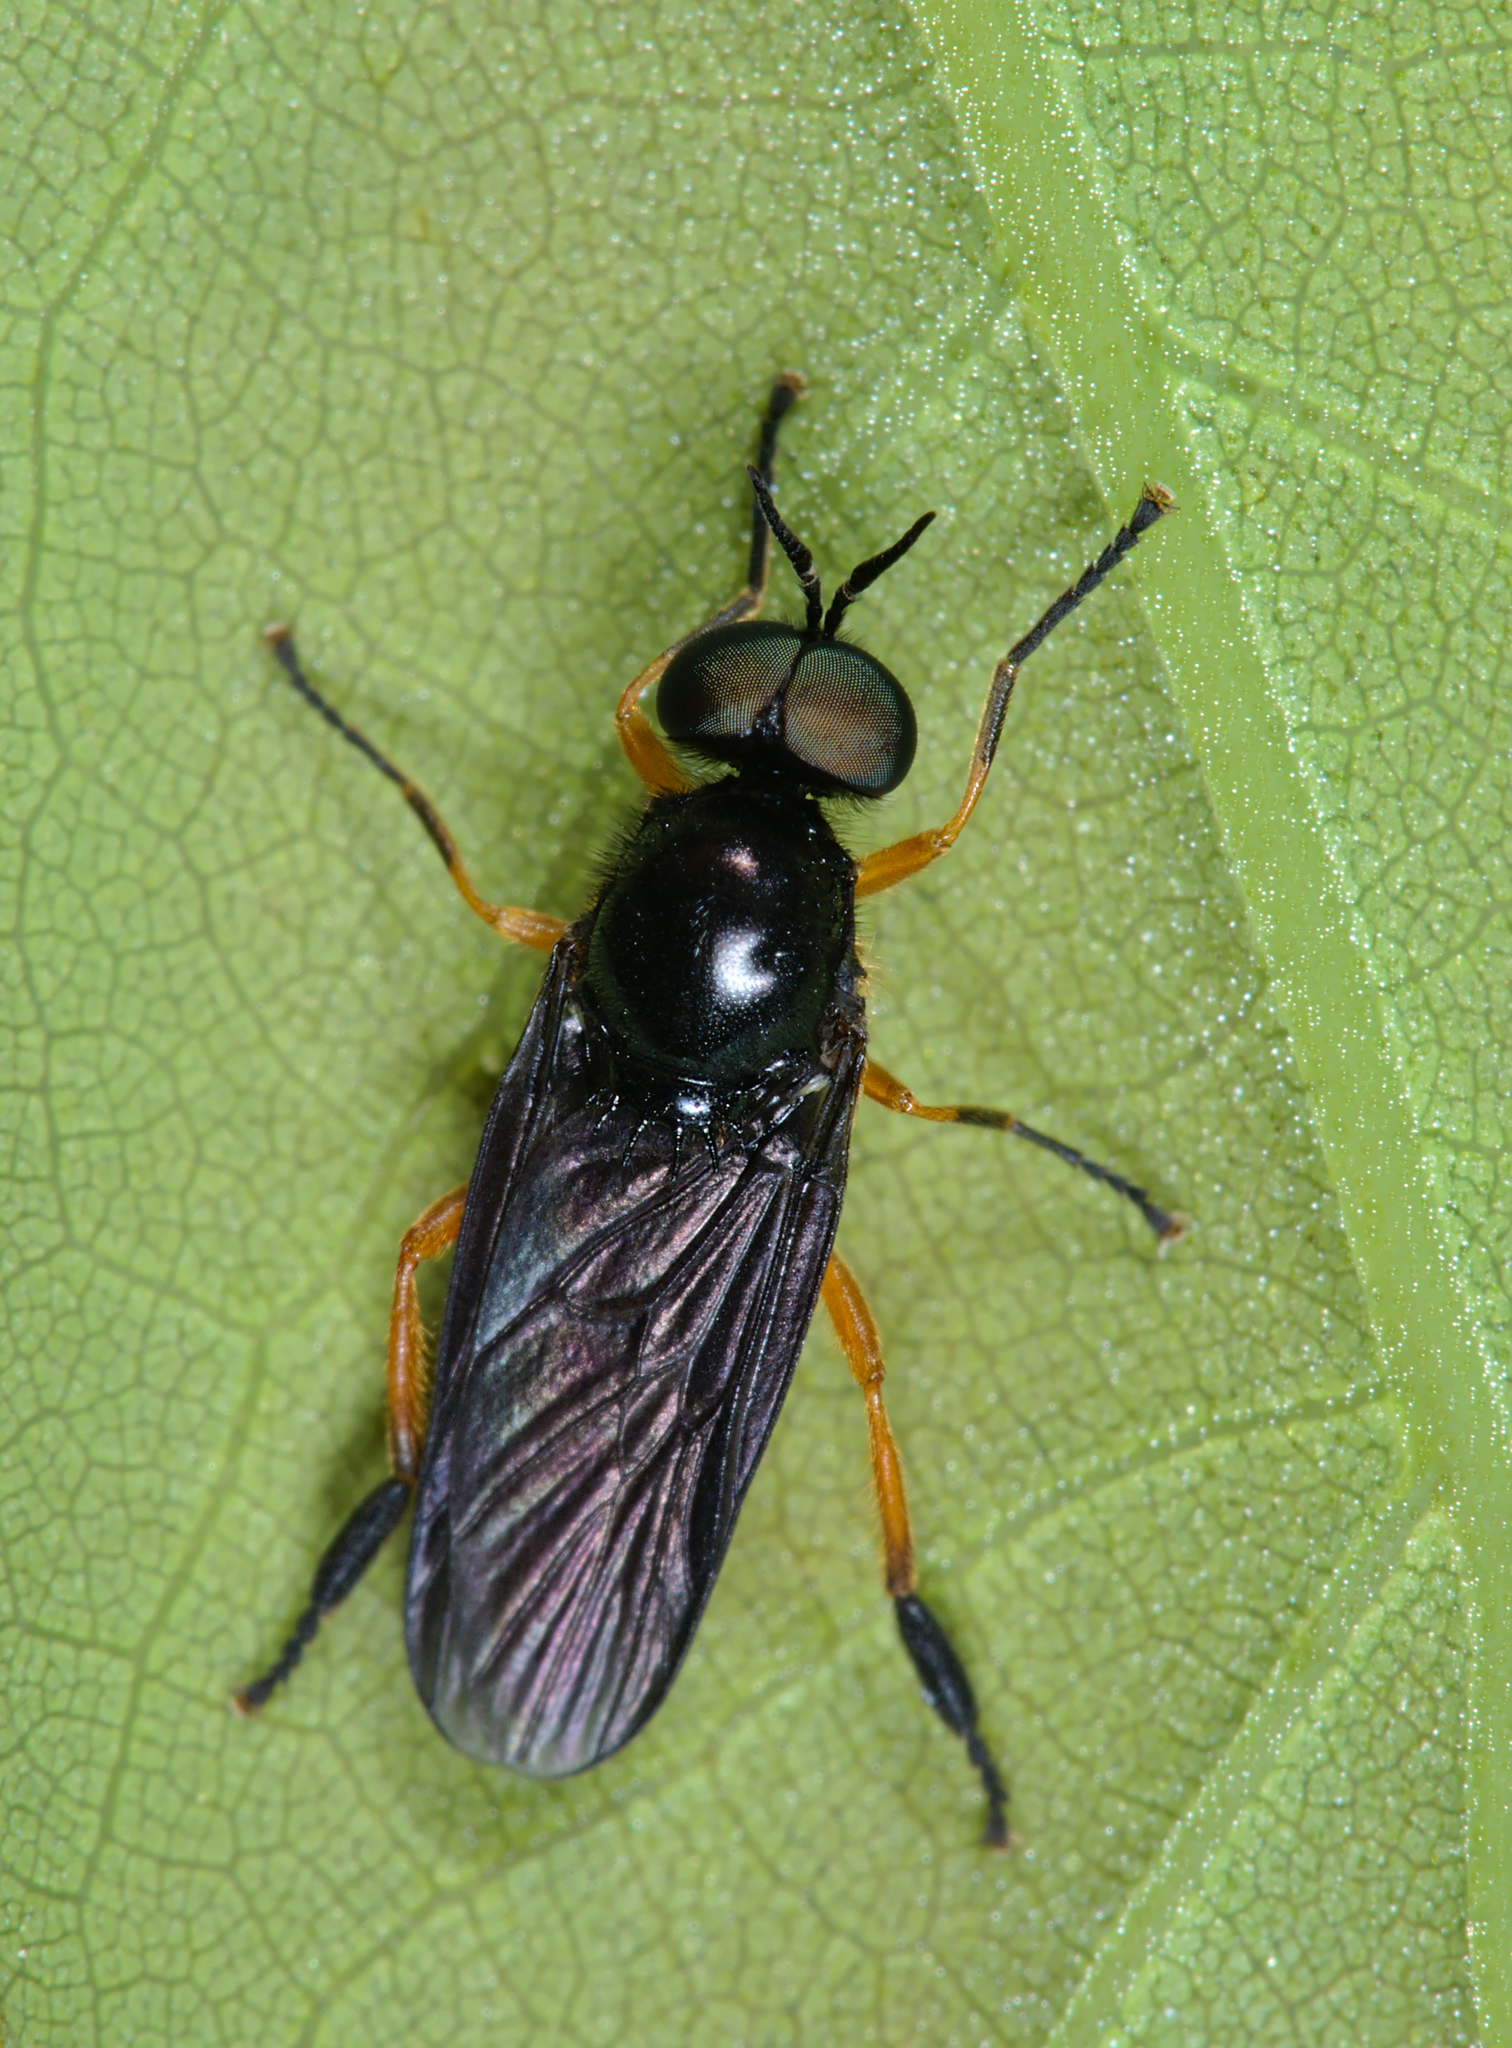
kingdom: Animalia
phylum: Arthropoda
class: Insecta
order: Diptera
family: Stratiomyidae
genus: Beris
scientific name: Beris clavipes
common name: Scarce orange legionnaire
